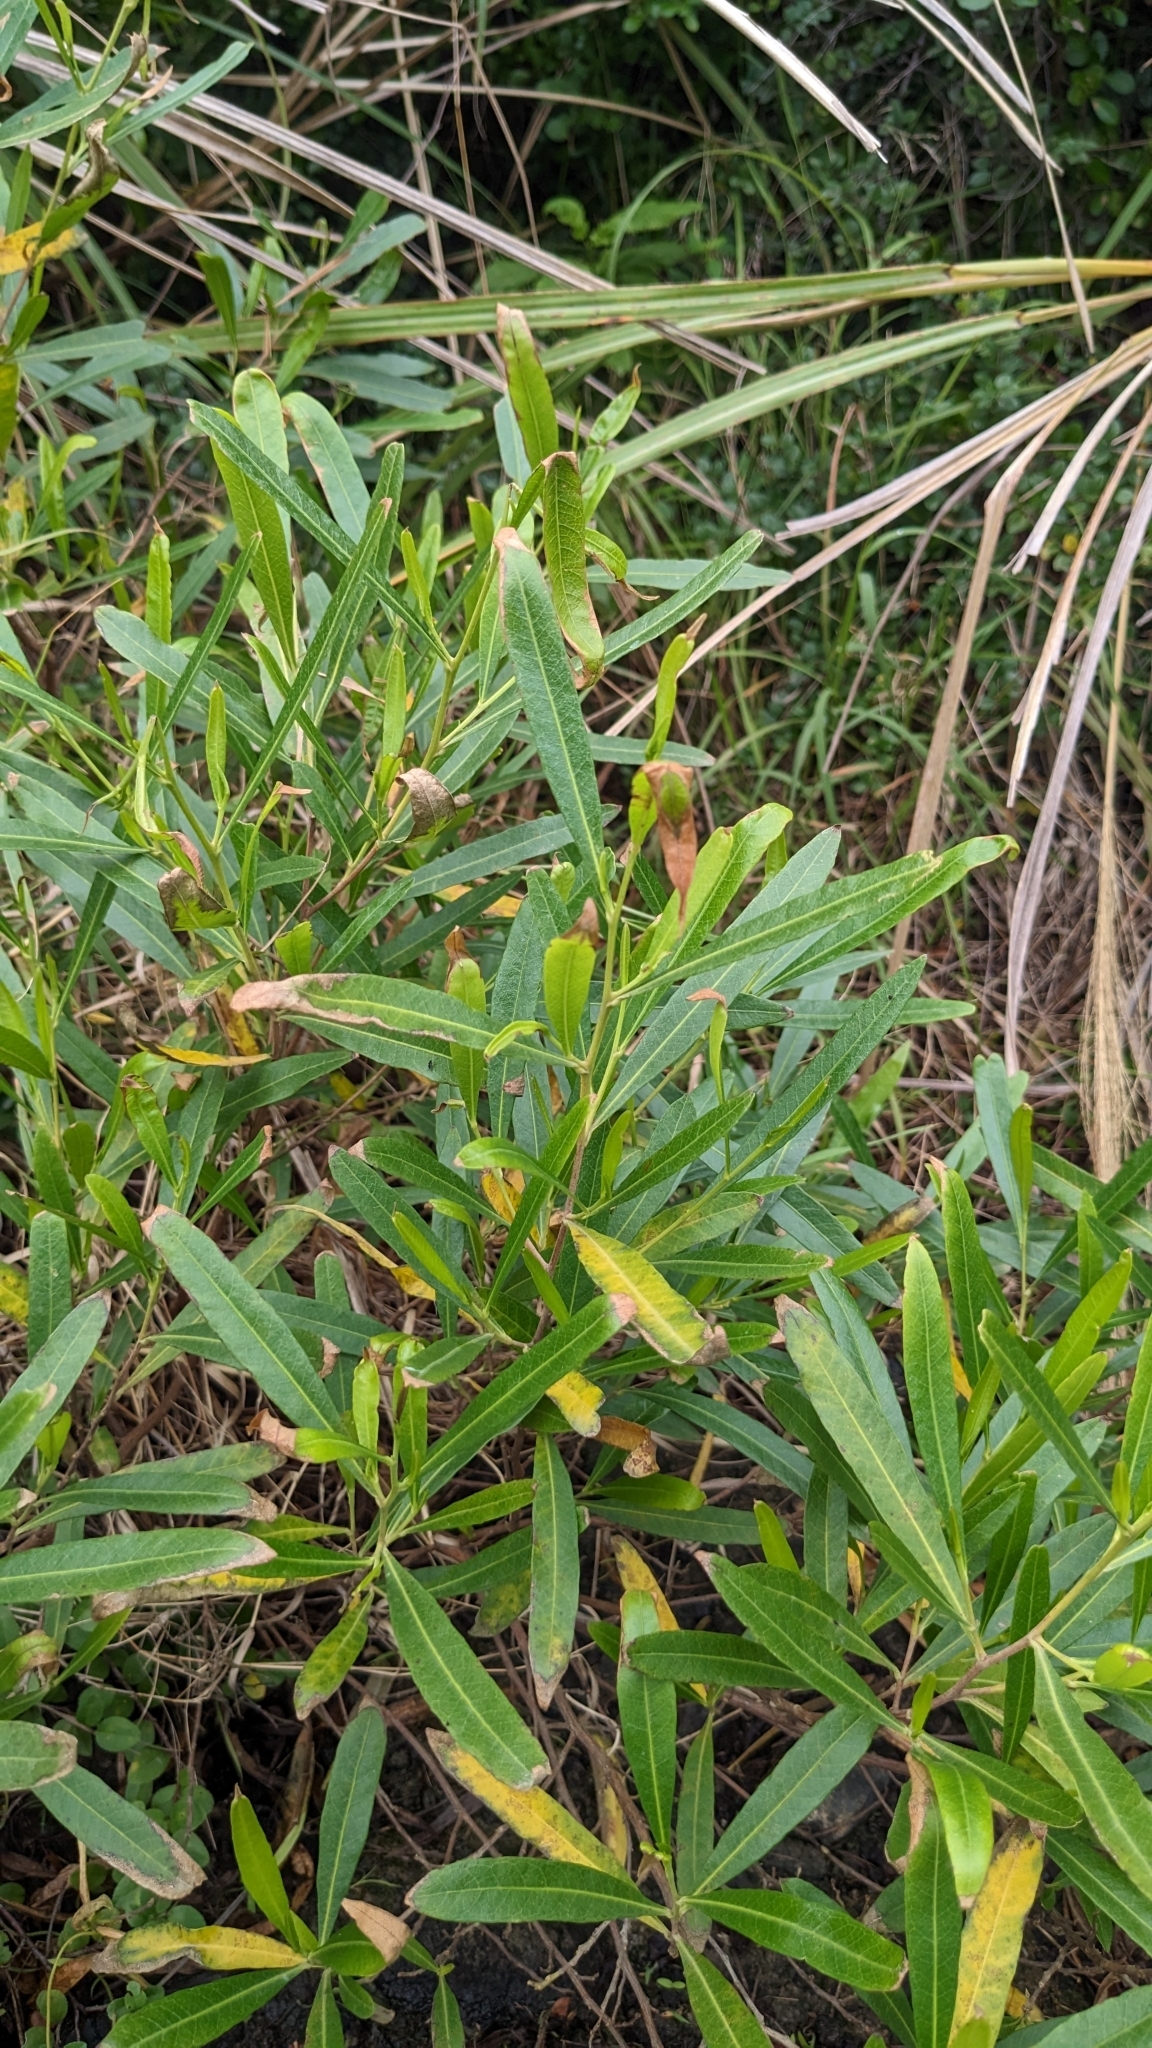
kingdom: Plantae
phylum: Tracheophyta
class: Magnoliopsida
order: Sapindales
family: Sapindaceae
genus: Dodonaea
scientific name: Dodonaea viscosa
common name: Hopbush
